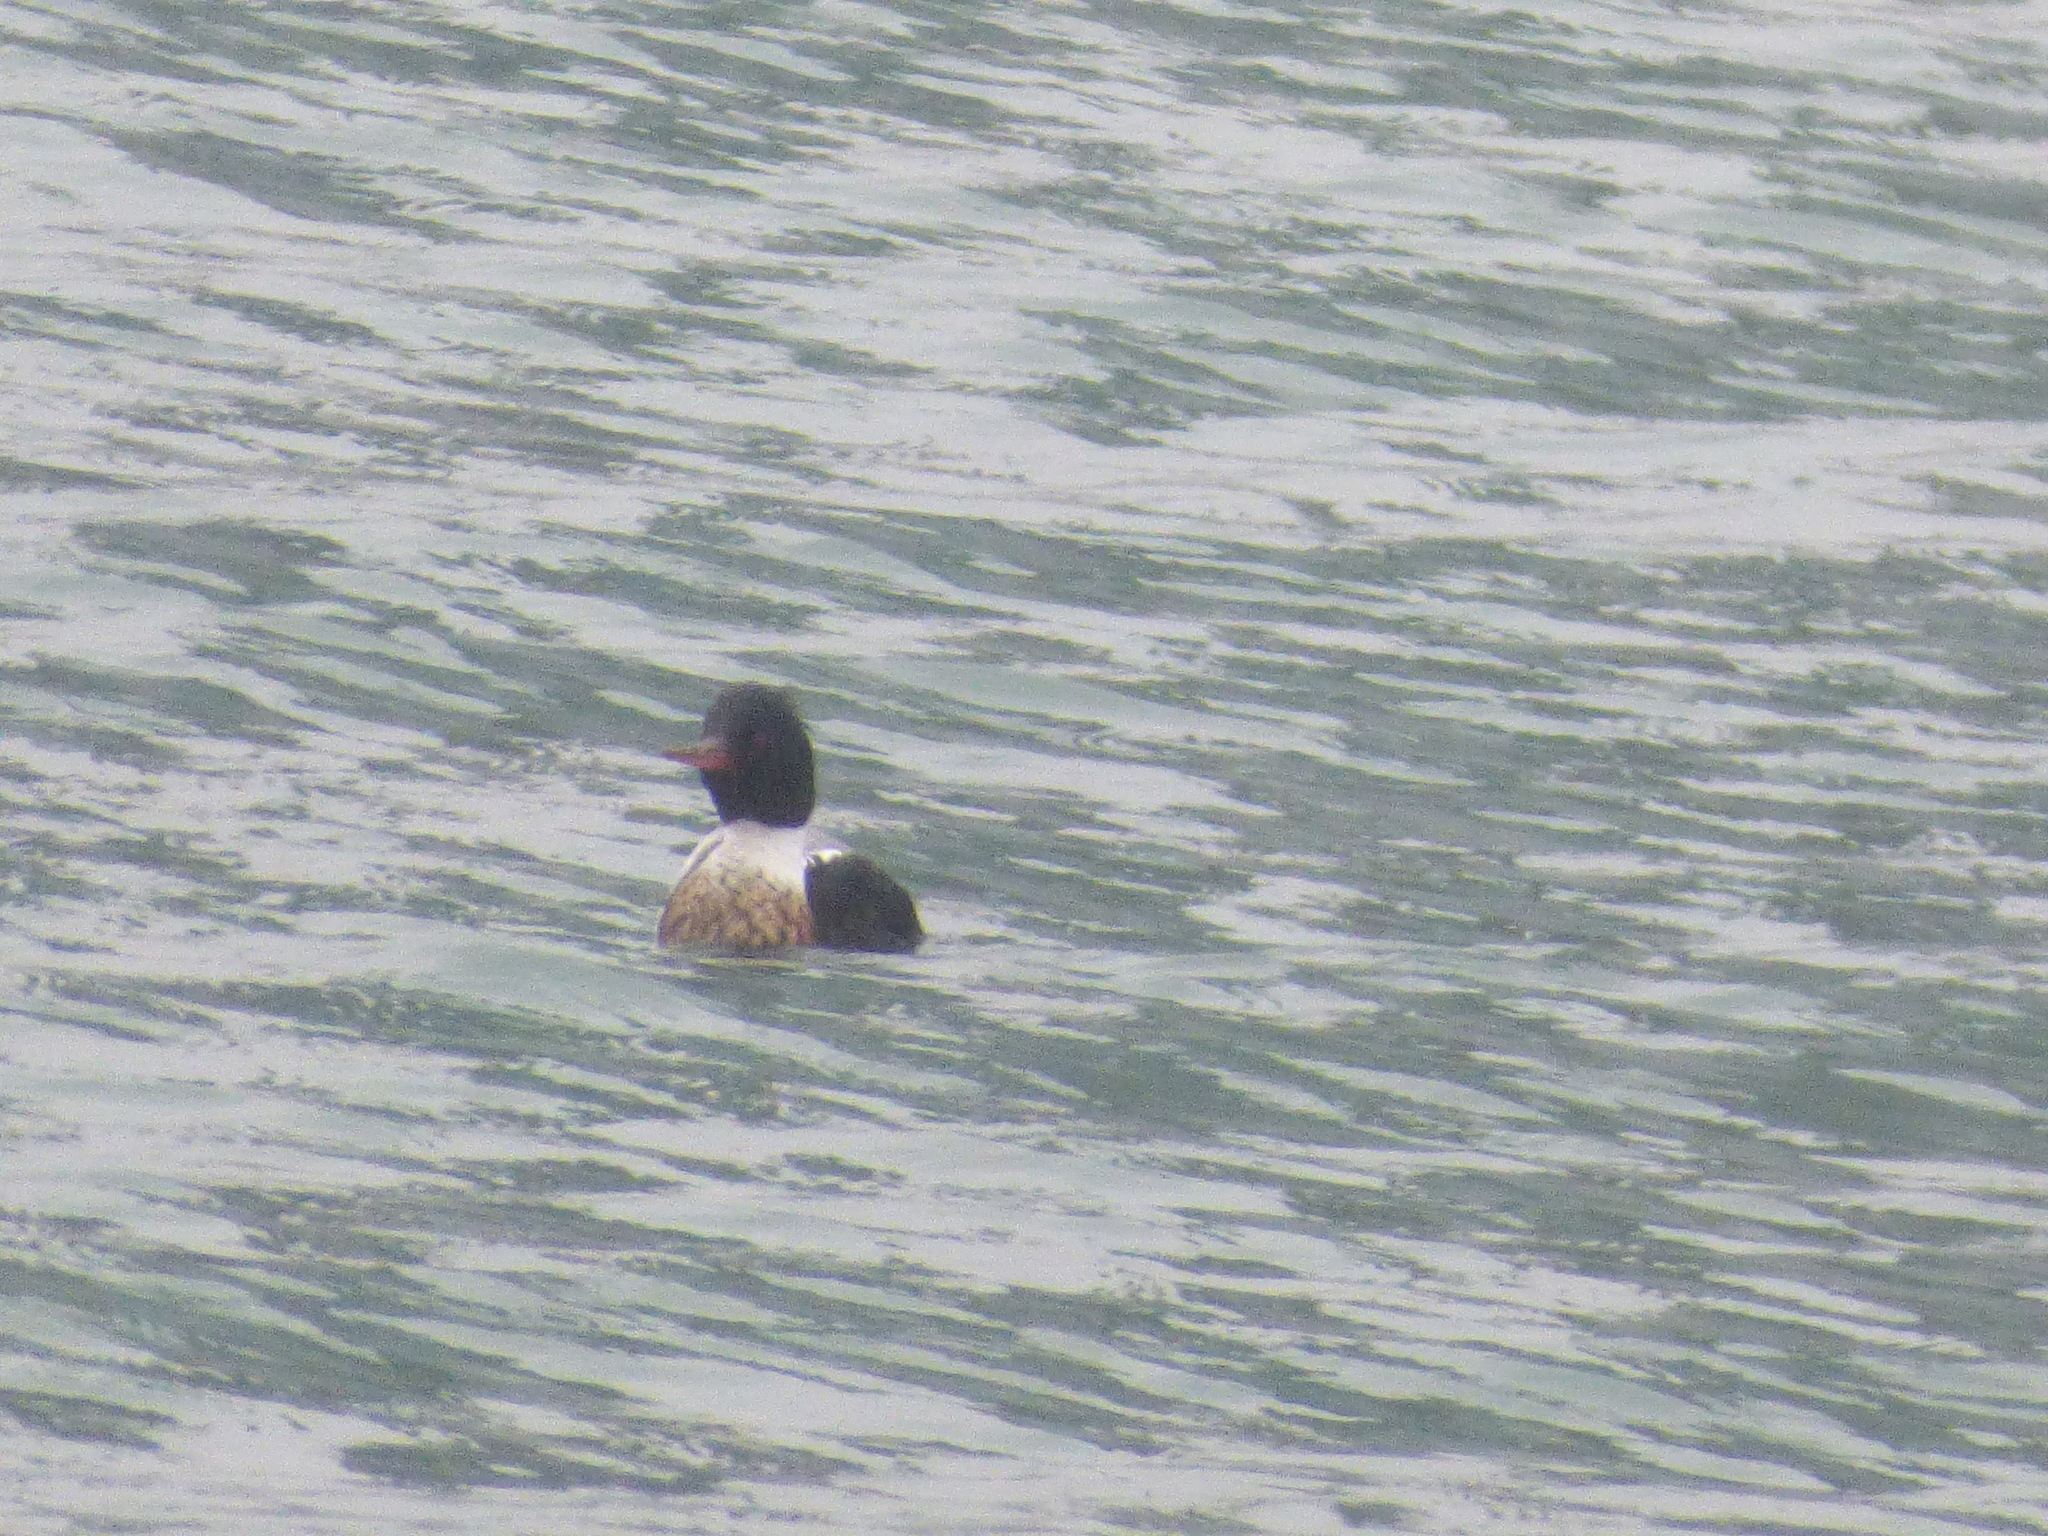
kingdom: Animalia
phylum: Chordata
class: Aves
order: Anseriformes
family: Anatidae
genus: Mergus
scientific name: Mergus serrator
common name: Red-breasted merganser
